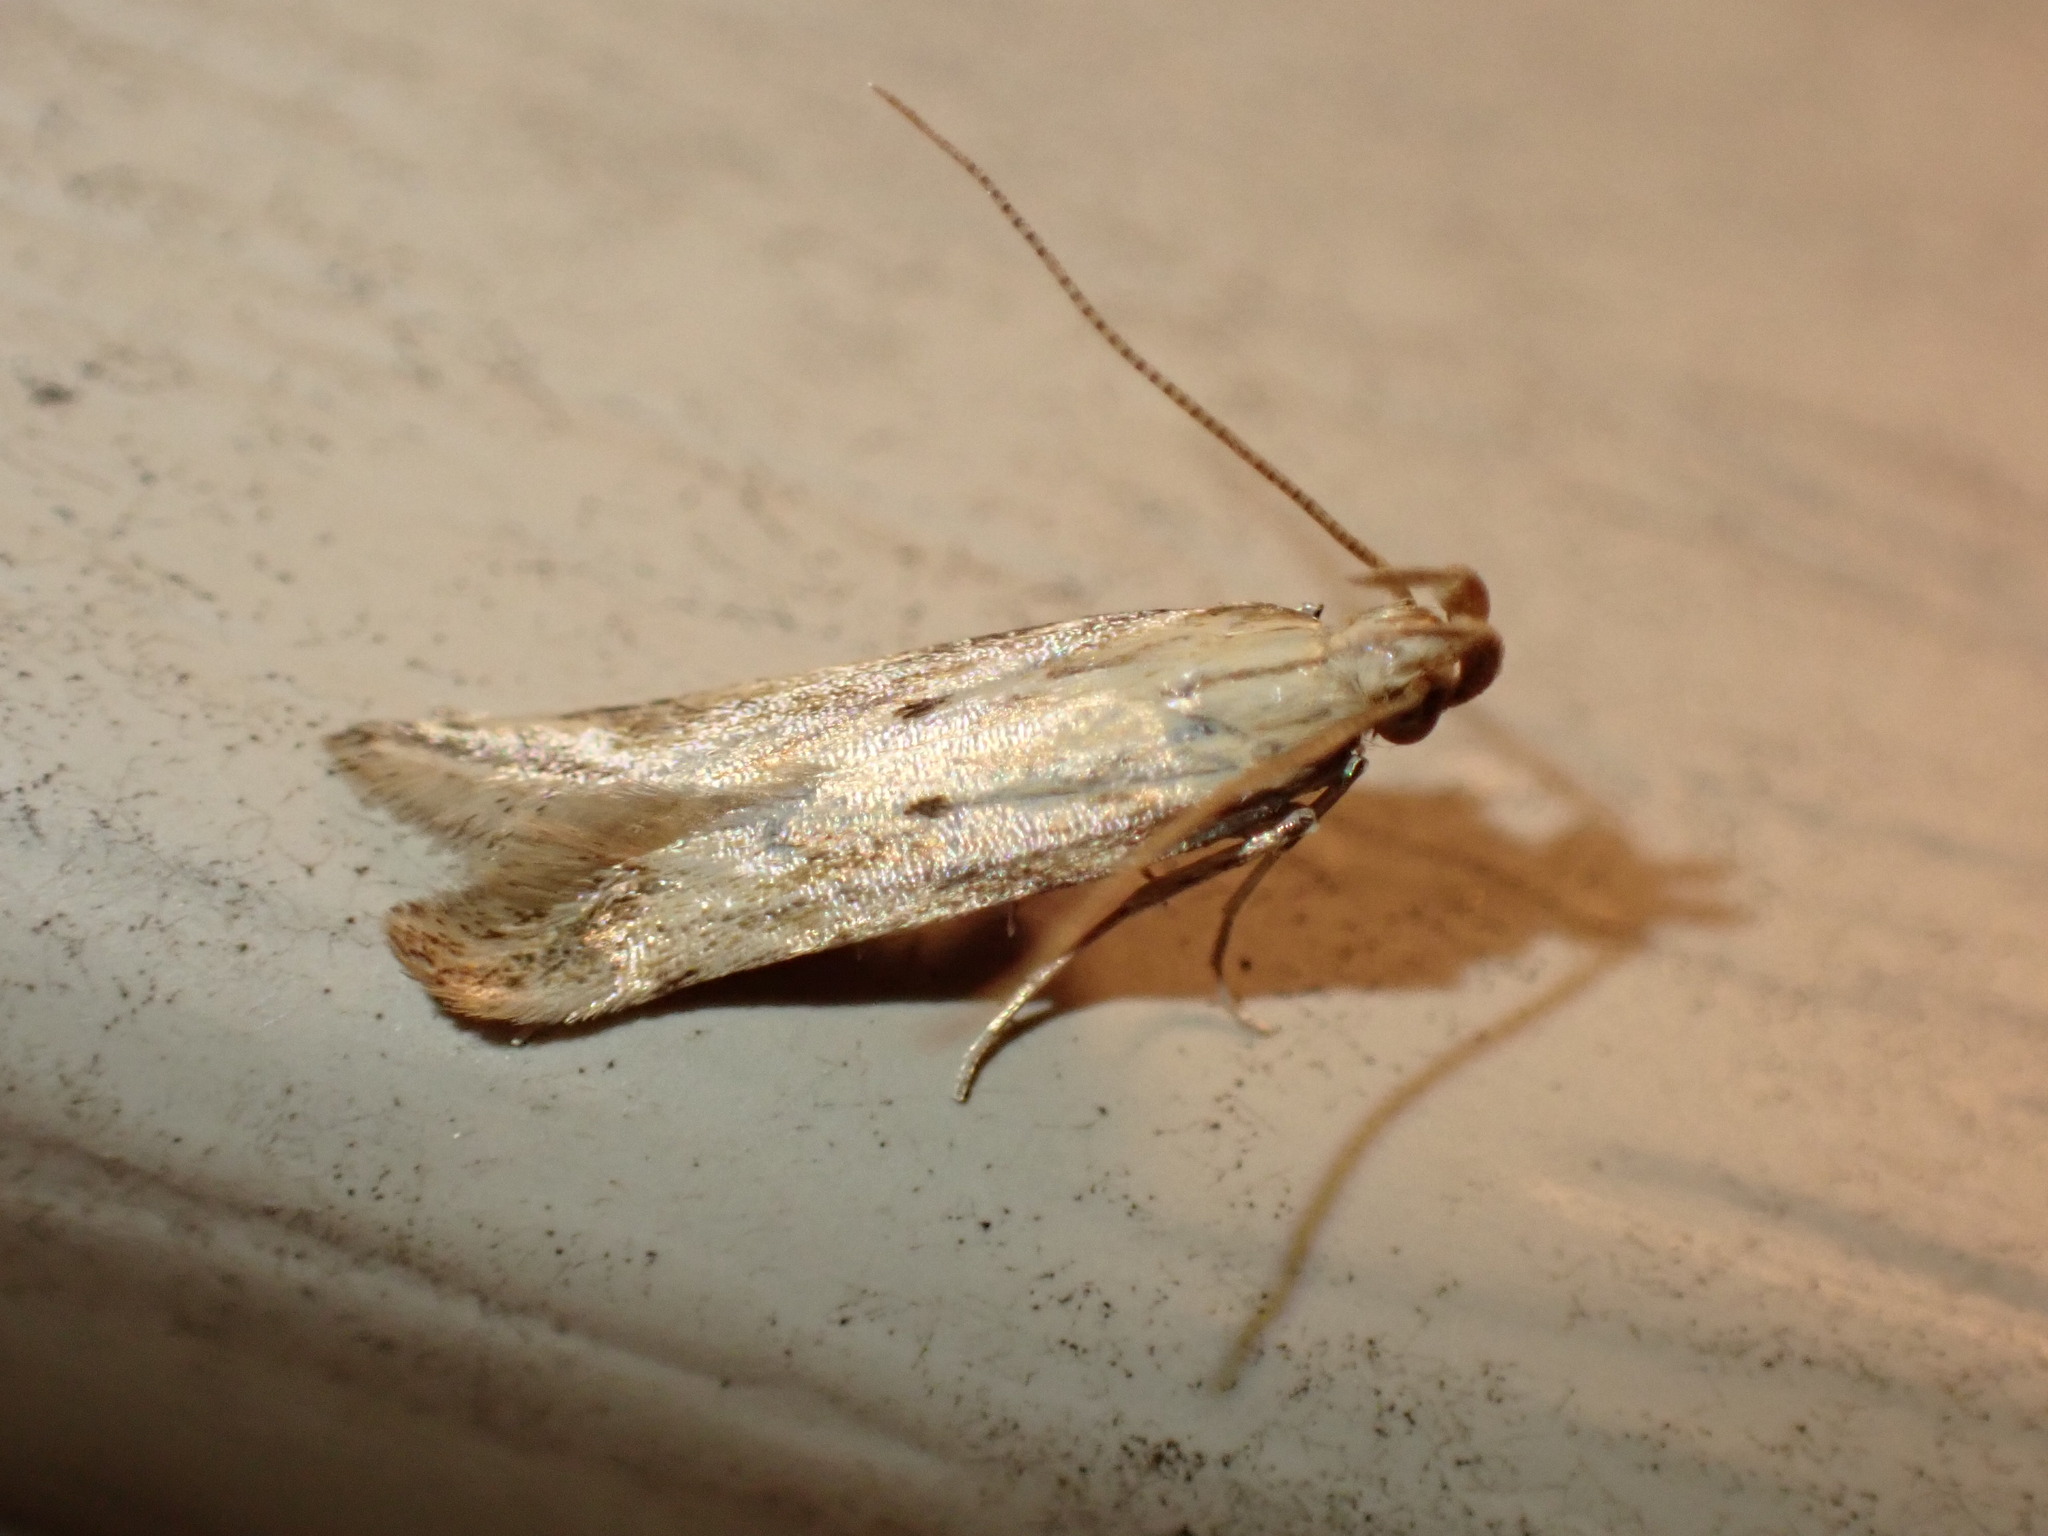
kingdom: Animalia
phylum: Arthropoda
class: Insecta
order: Lepidoptera
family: Gelechiidae
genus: Metzneria
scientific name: Metzneria lappella
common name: Burdock neb
